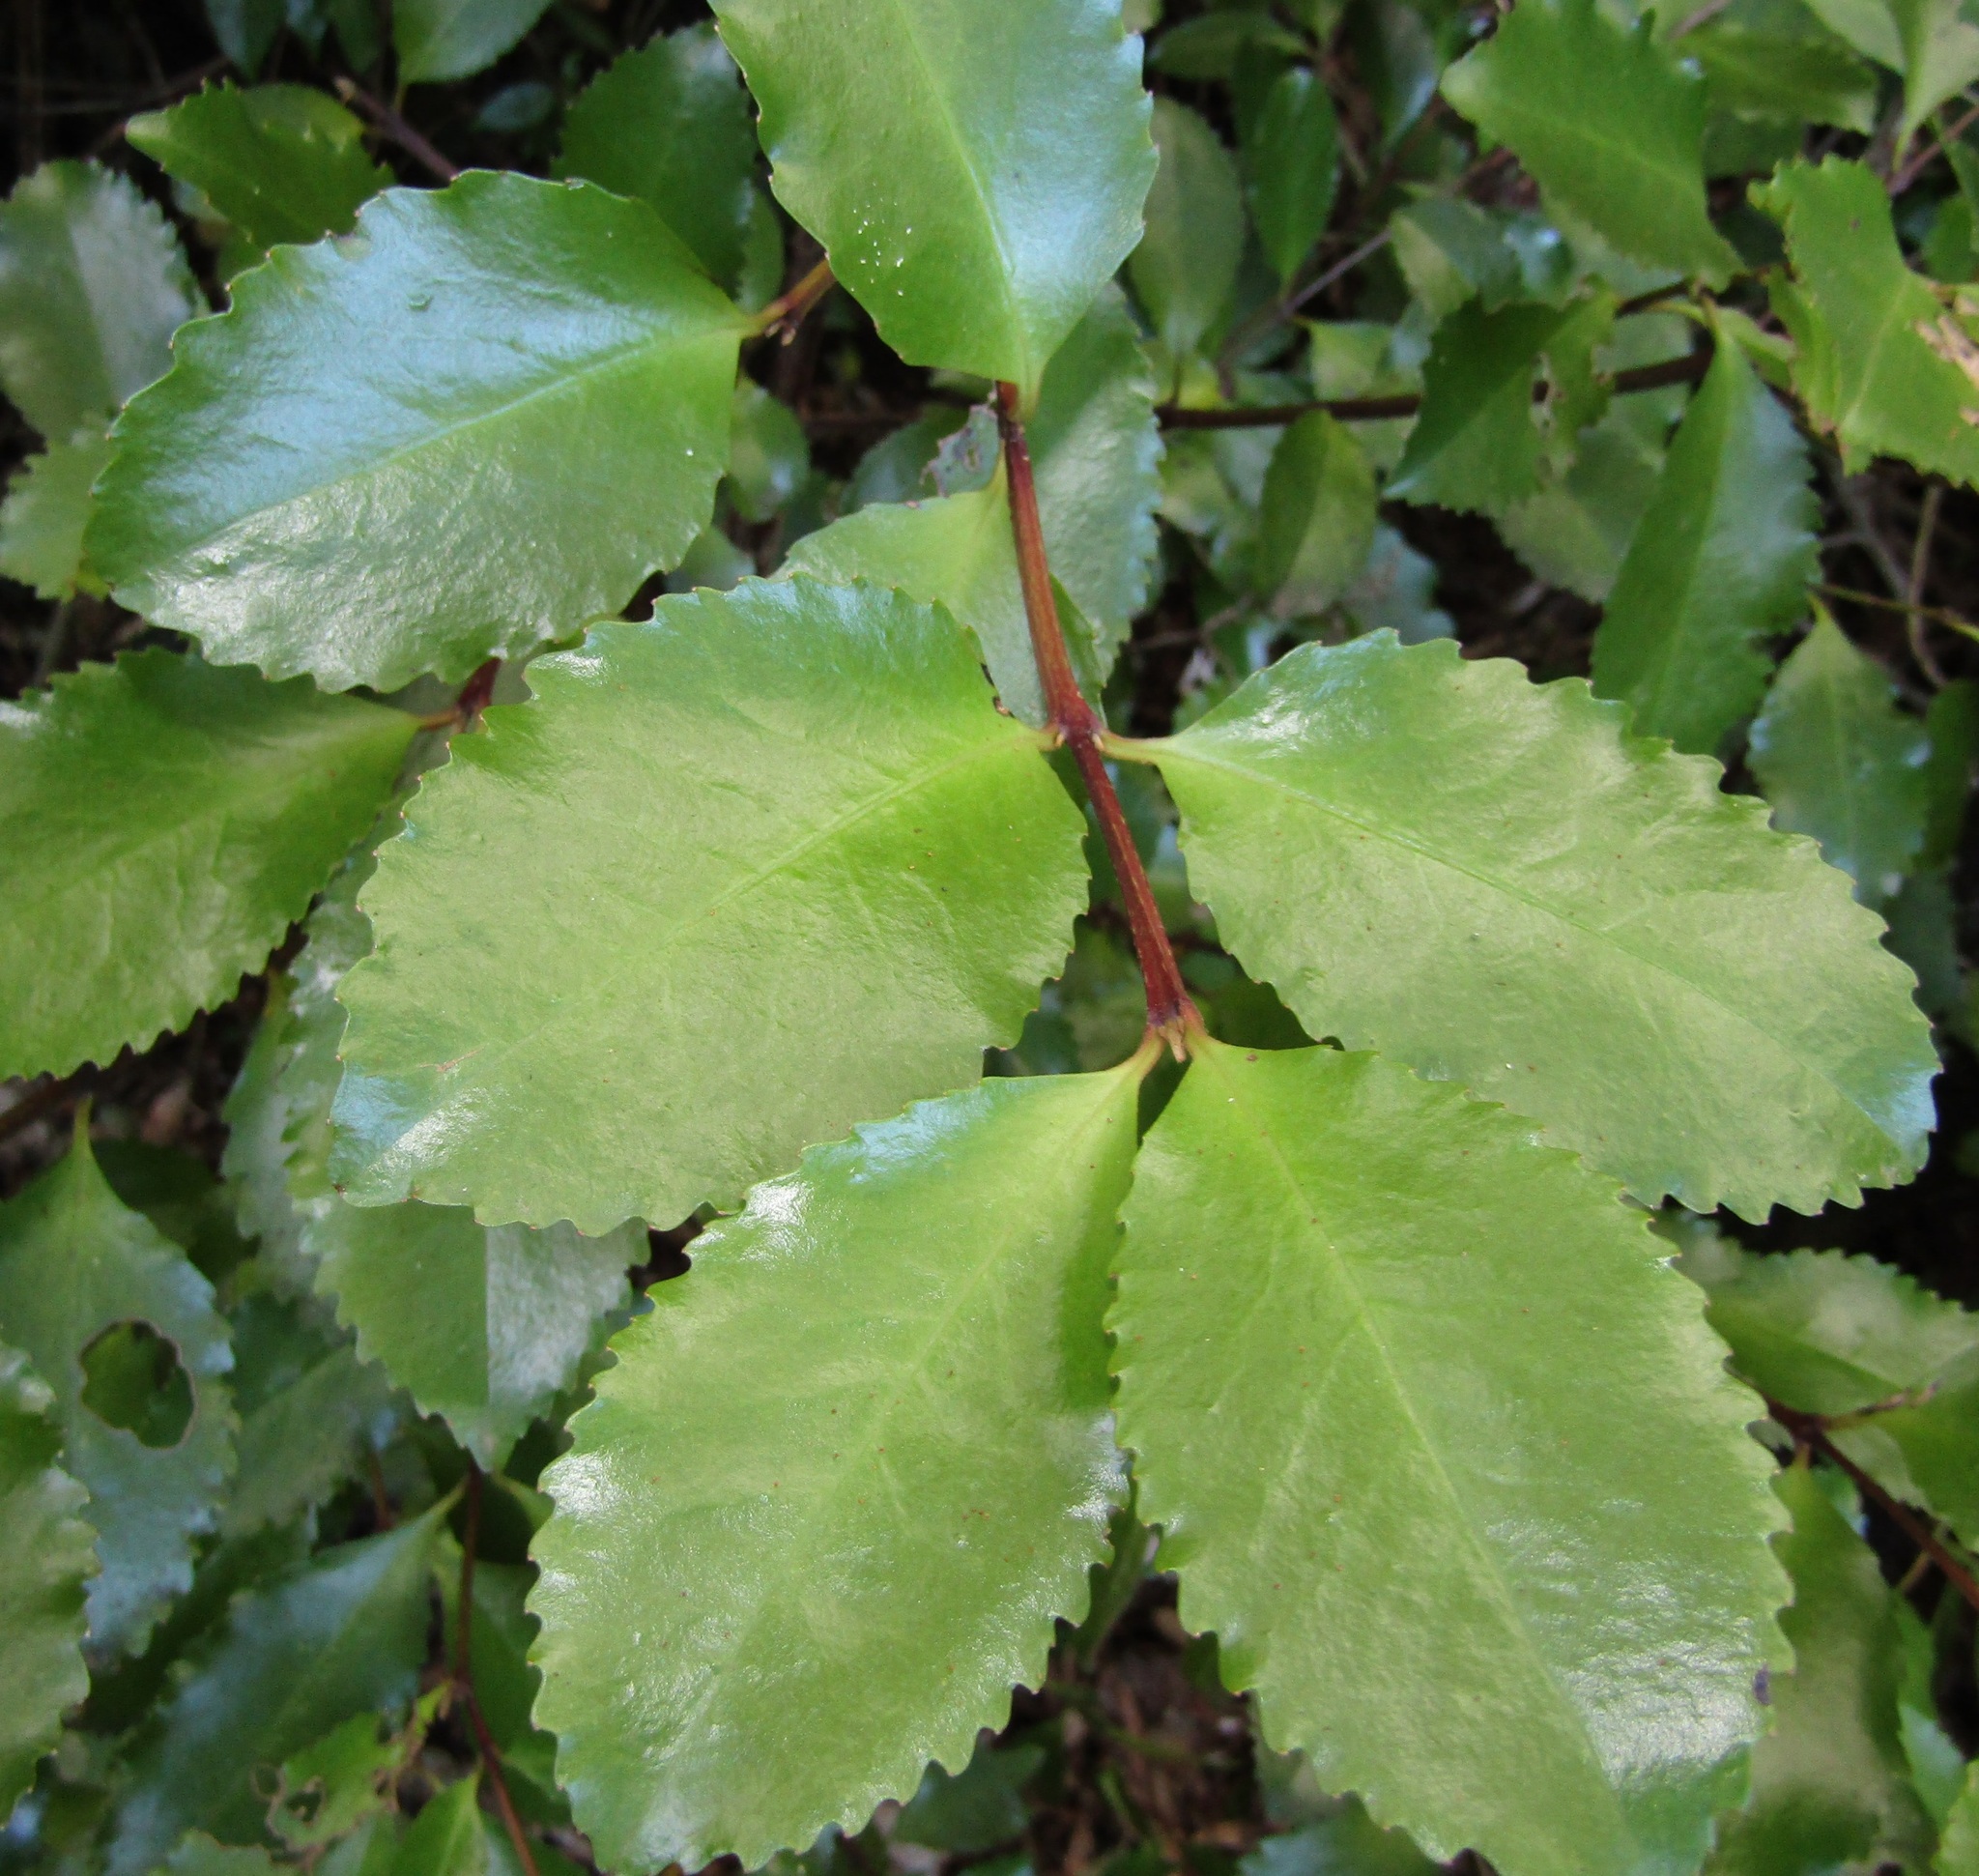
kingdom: Plantae
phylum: Tracheophyta
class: Magnoliopsida
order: Laurales
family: Atherospermataceae
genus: Laurelia
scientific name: Laurelia novae-zelandiae
